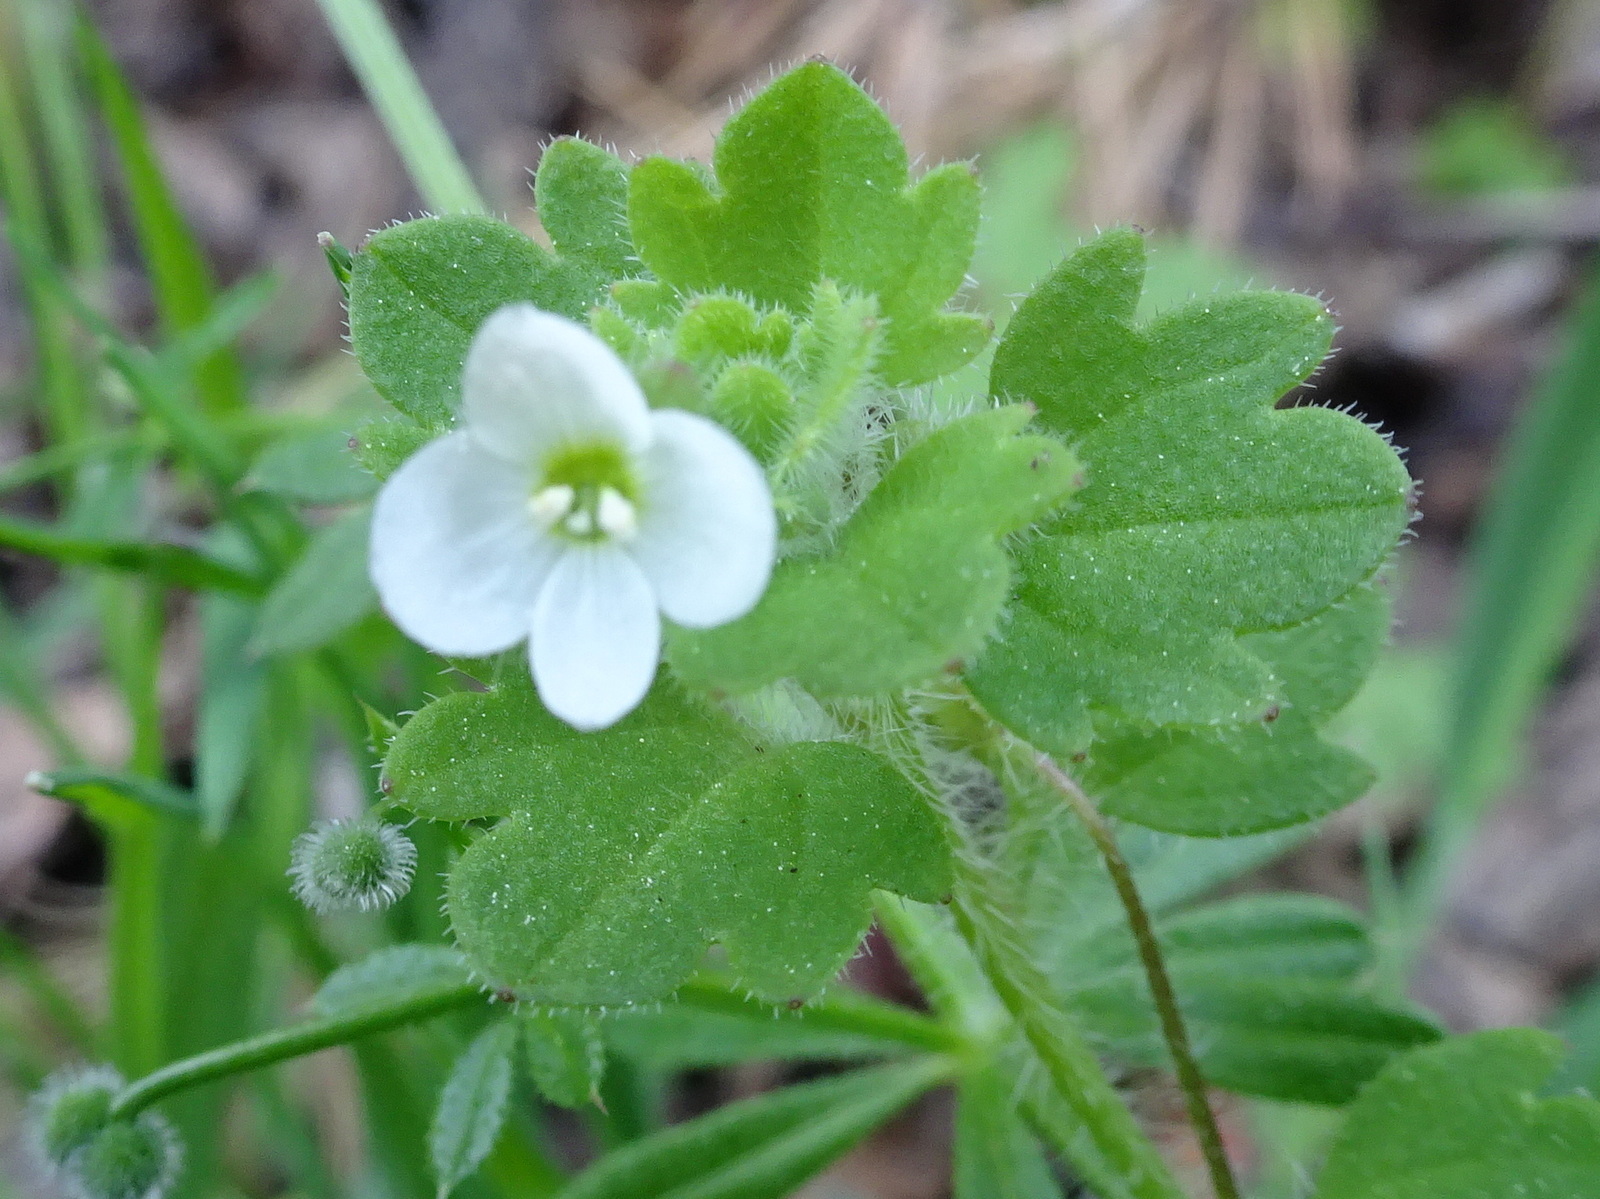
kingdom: Plantae
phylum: Tracheophyta
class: Magnoliopsida
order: Lamiales
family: Plantaginaceae
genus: Veronica
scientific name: Veronica cymbalaria
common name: Pale speedwell
